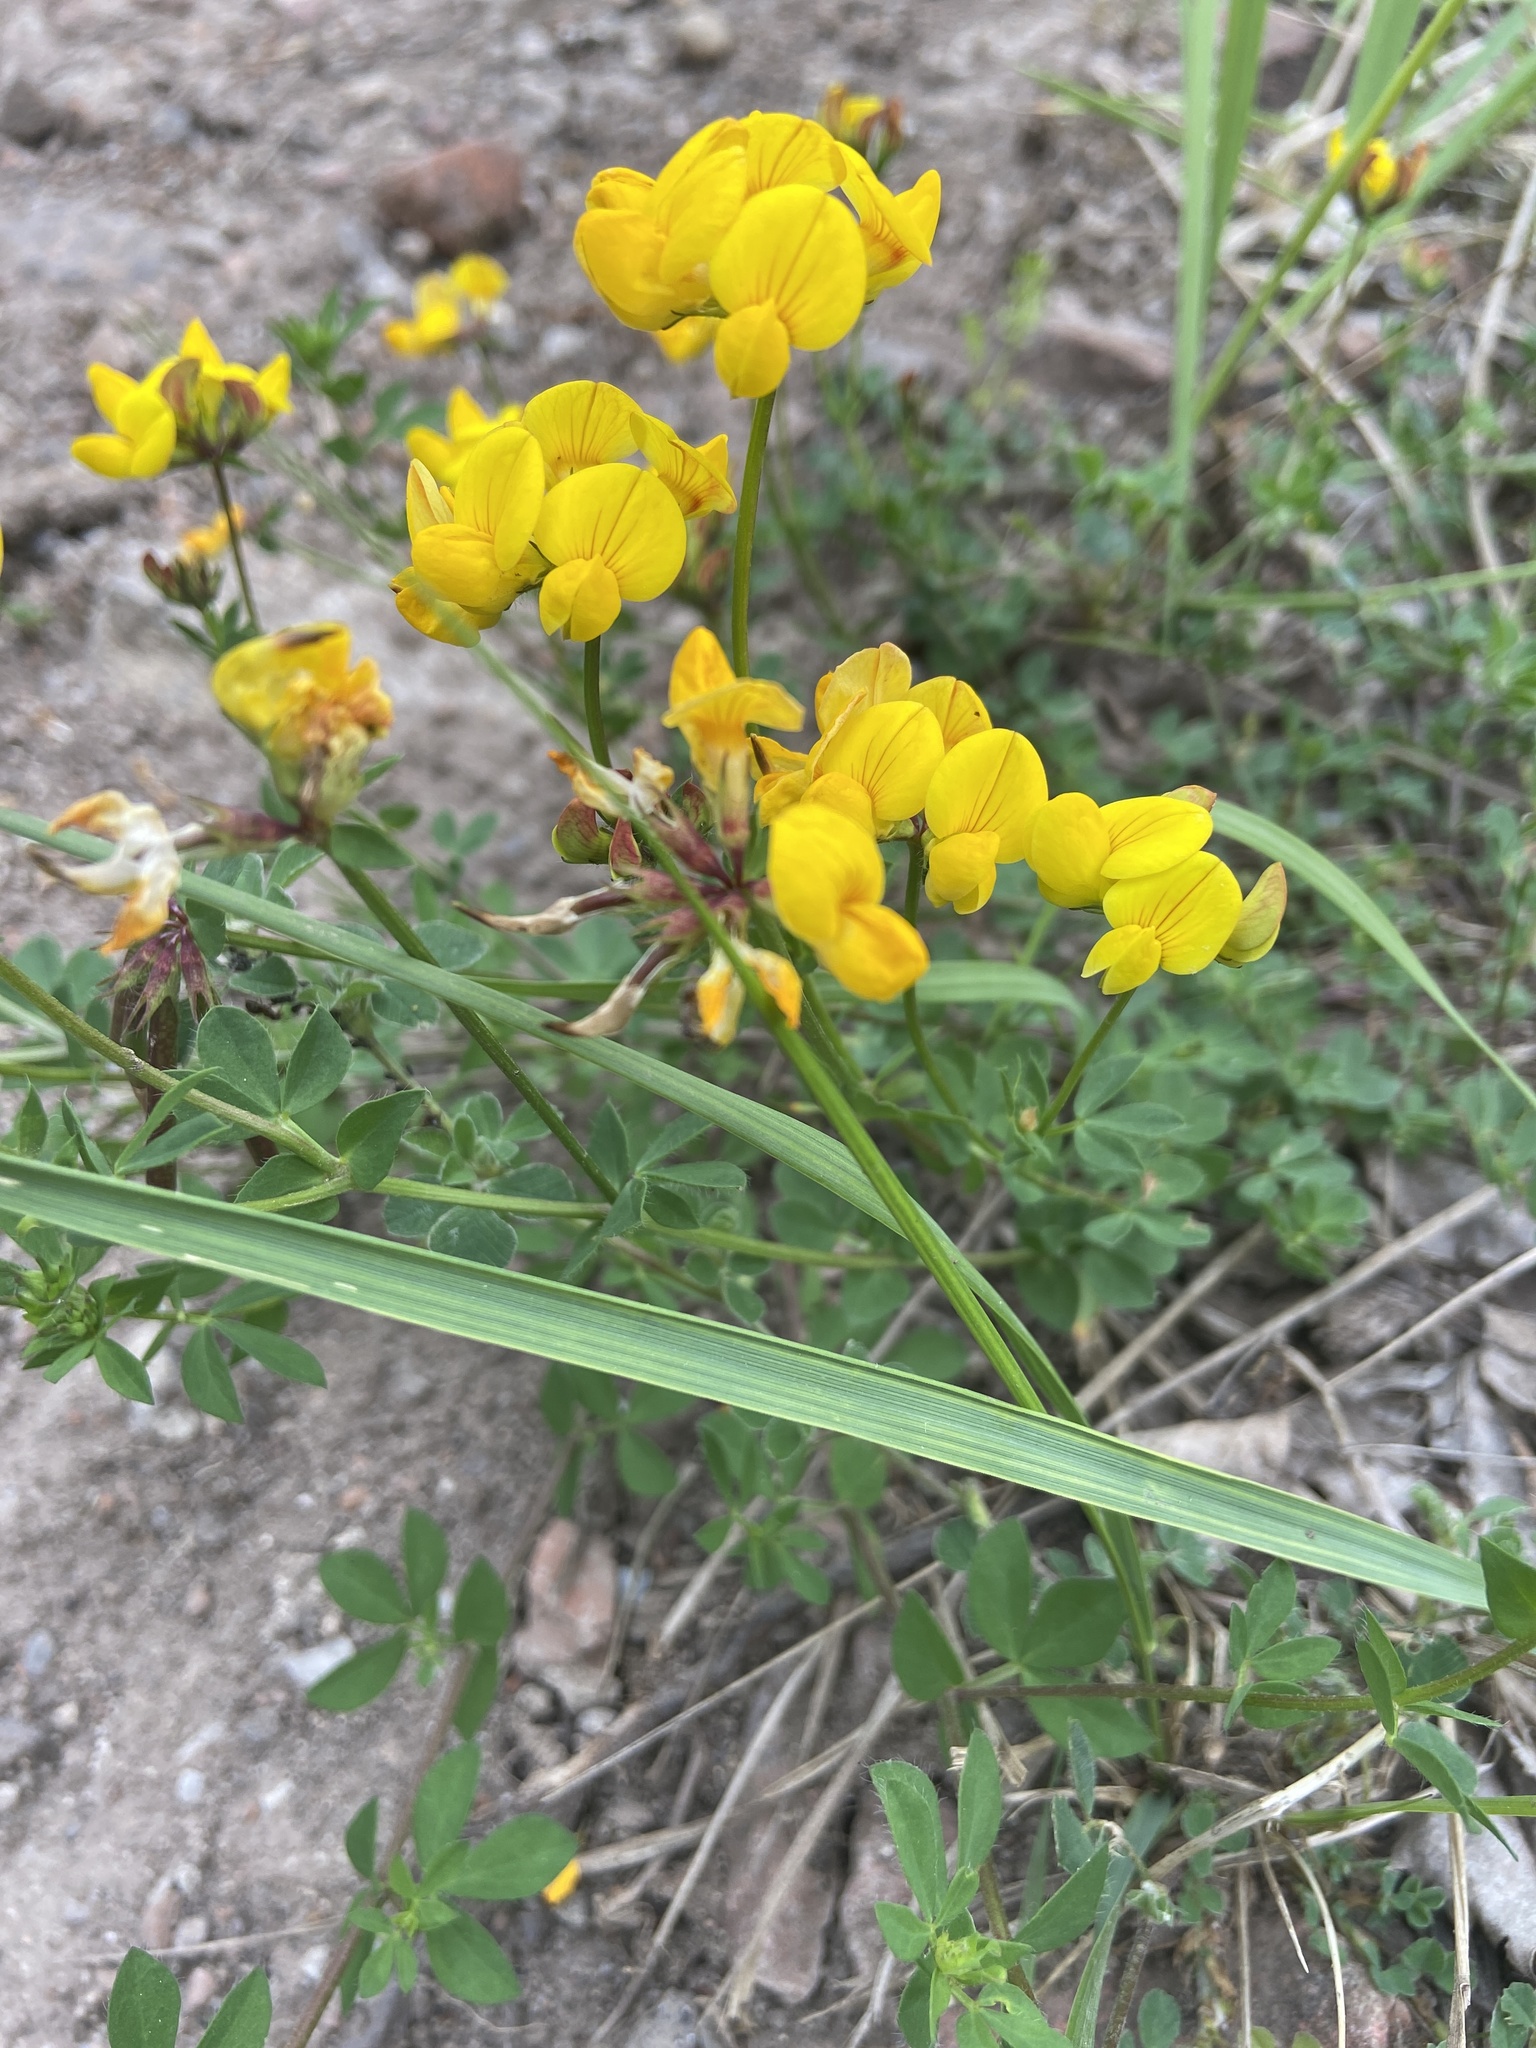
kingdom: Plantae
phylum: Tracheophyta
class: Magnoliopsida
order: Fabales
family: Fabaceae
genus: Lotus
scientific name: Lotus corniculatus
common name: Common bird's-foot-trefoil
